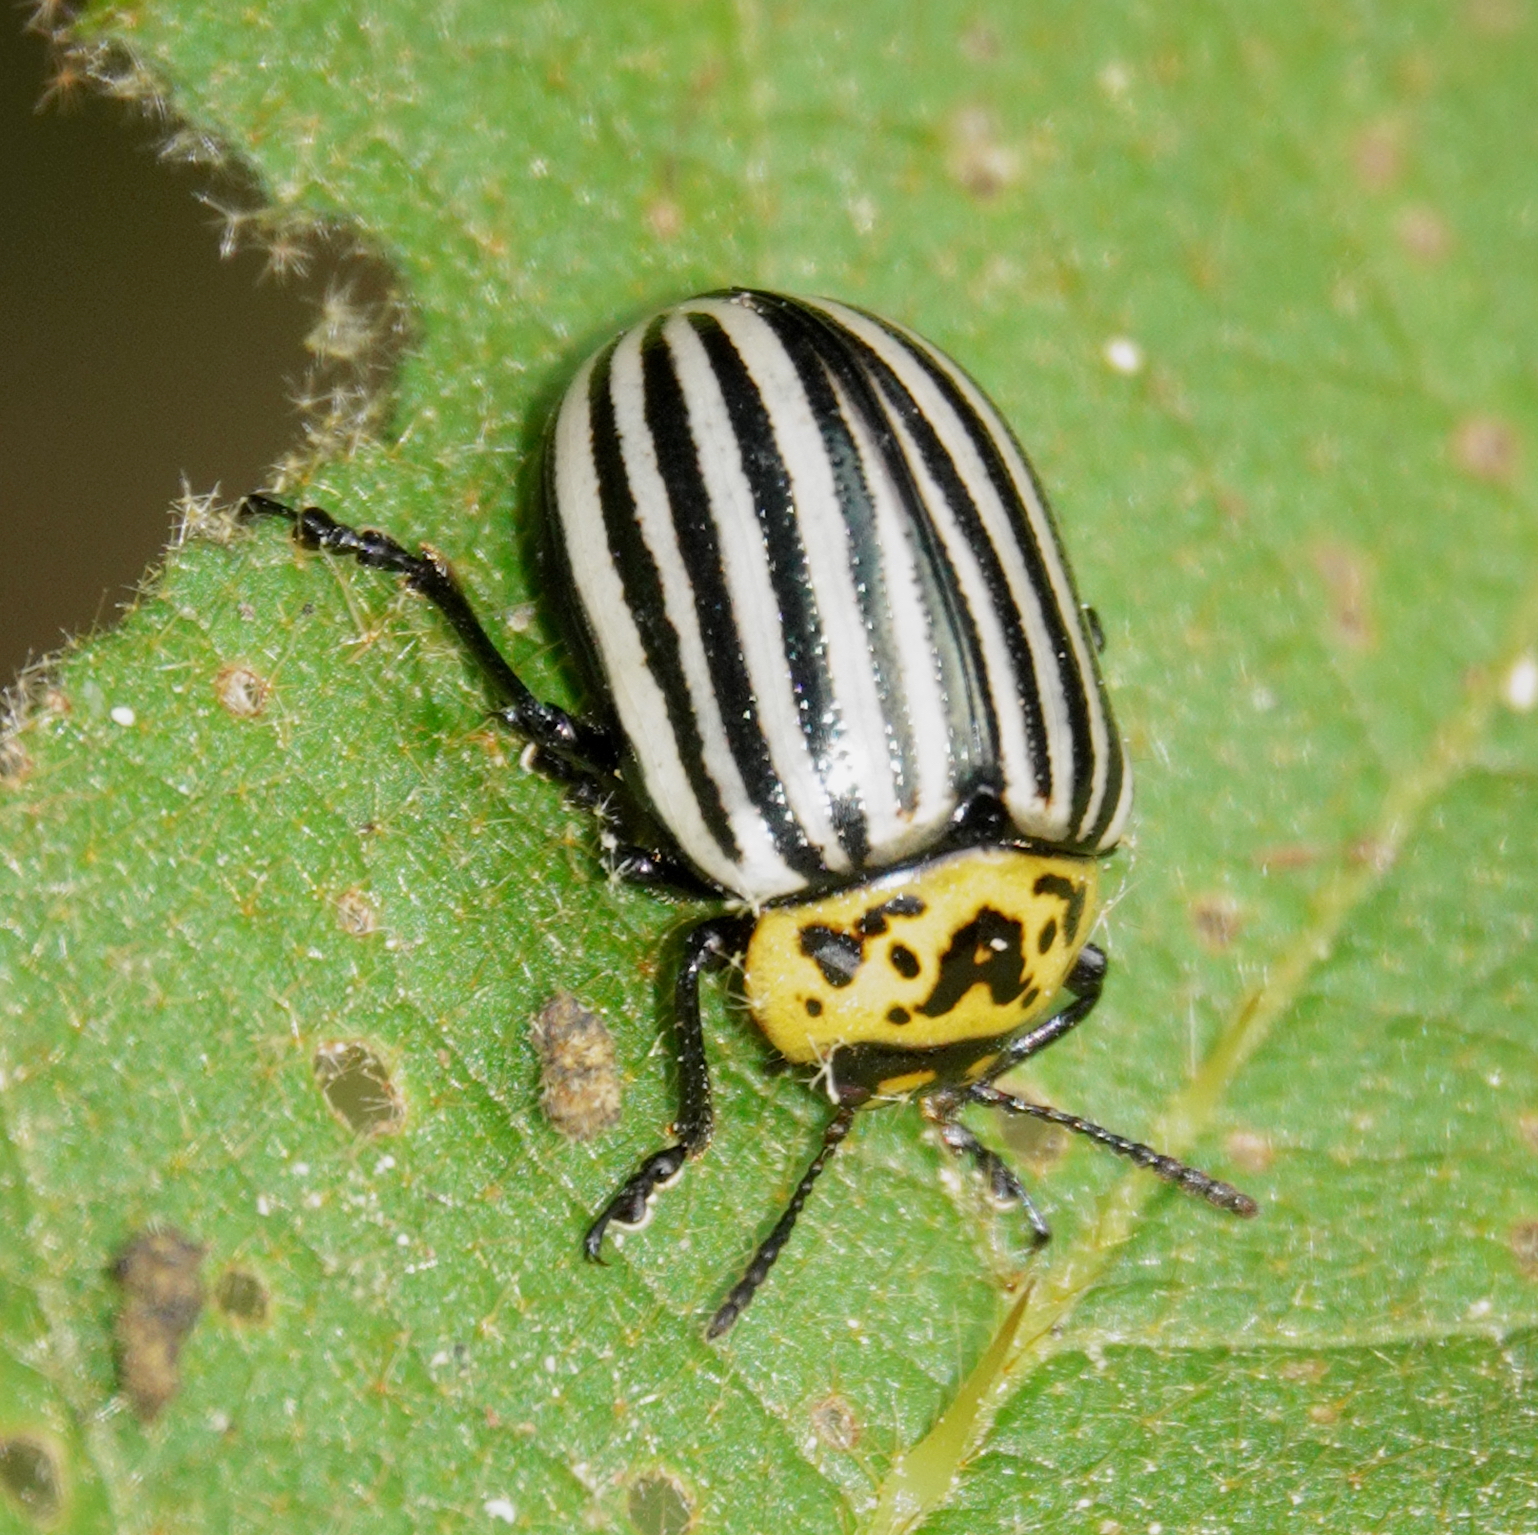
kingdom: Animalia
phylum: Arthropoda
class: Insecta
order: Coleoptera
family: Chrysomelidae
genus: Leptinotarsa
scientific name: Leptinotarsa
